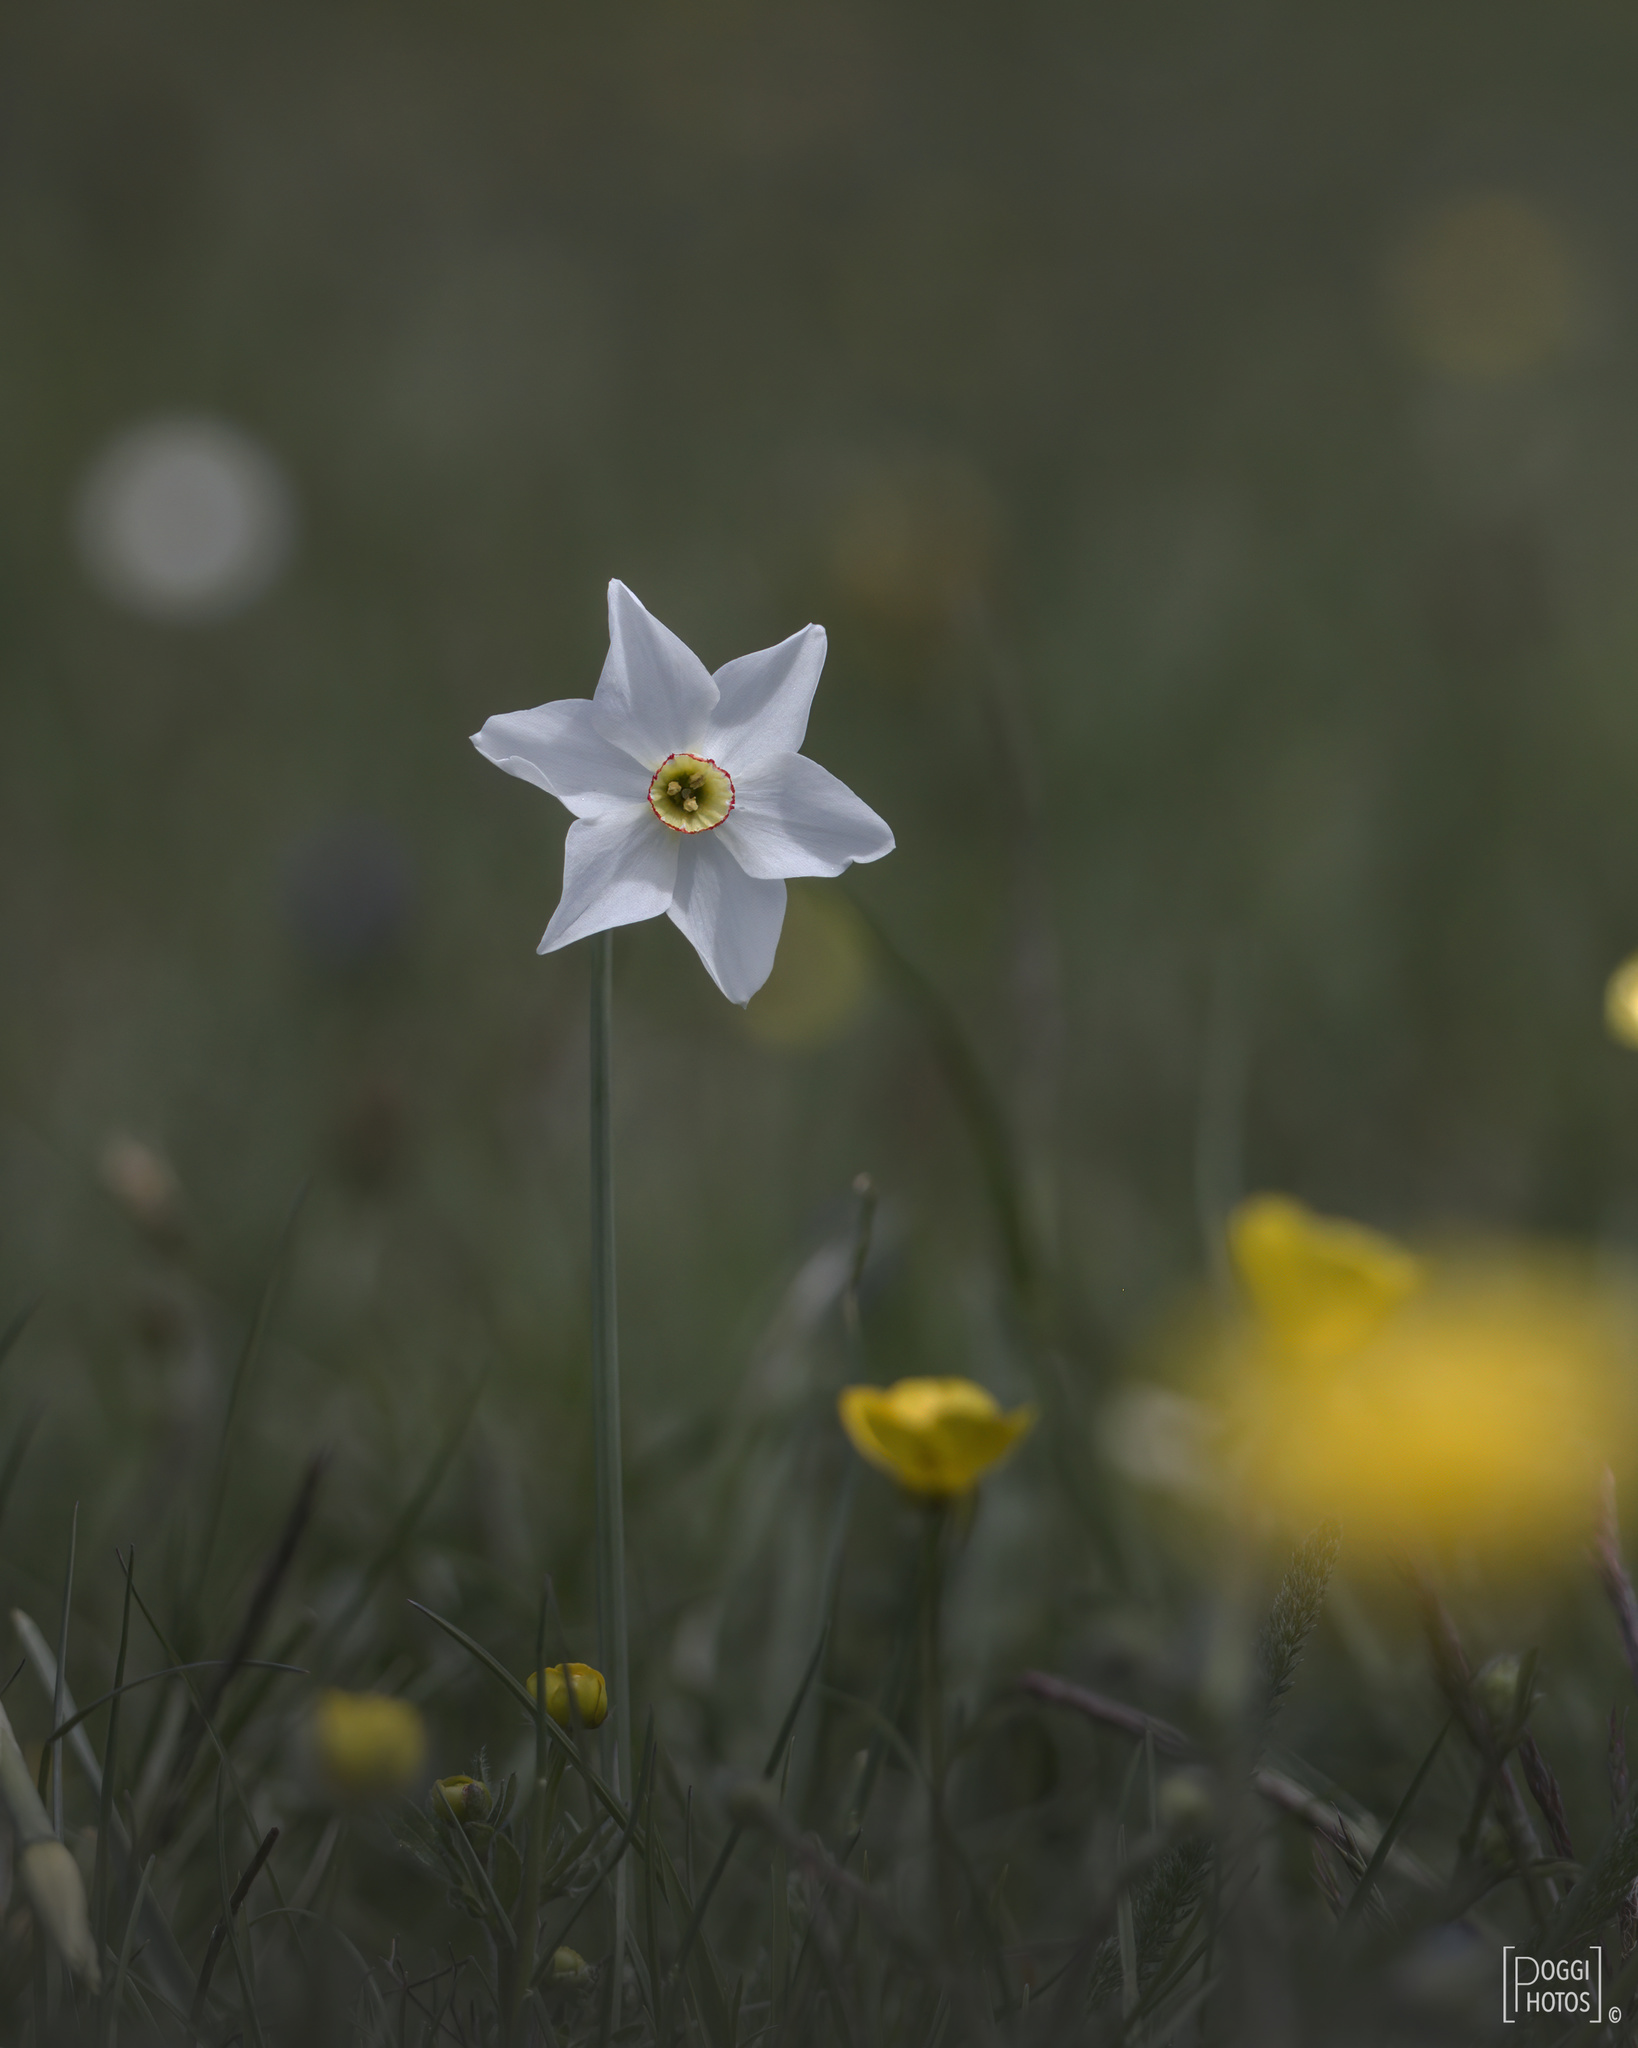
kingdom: Plantae
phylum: Tracheophyta
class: Liliopsida
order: Asparagales
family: Amaryllidaceae
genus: Narcissus
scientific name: Narcissus poeticus
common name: Pheasant's-eye daffodil
